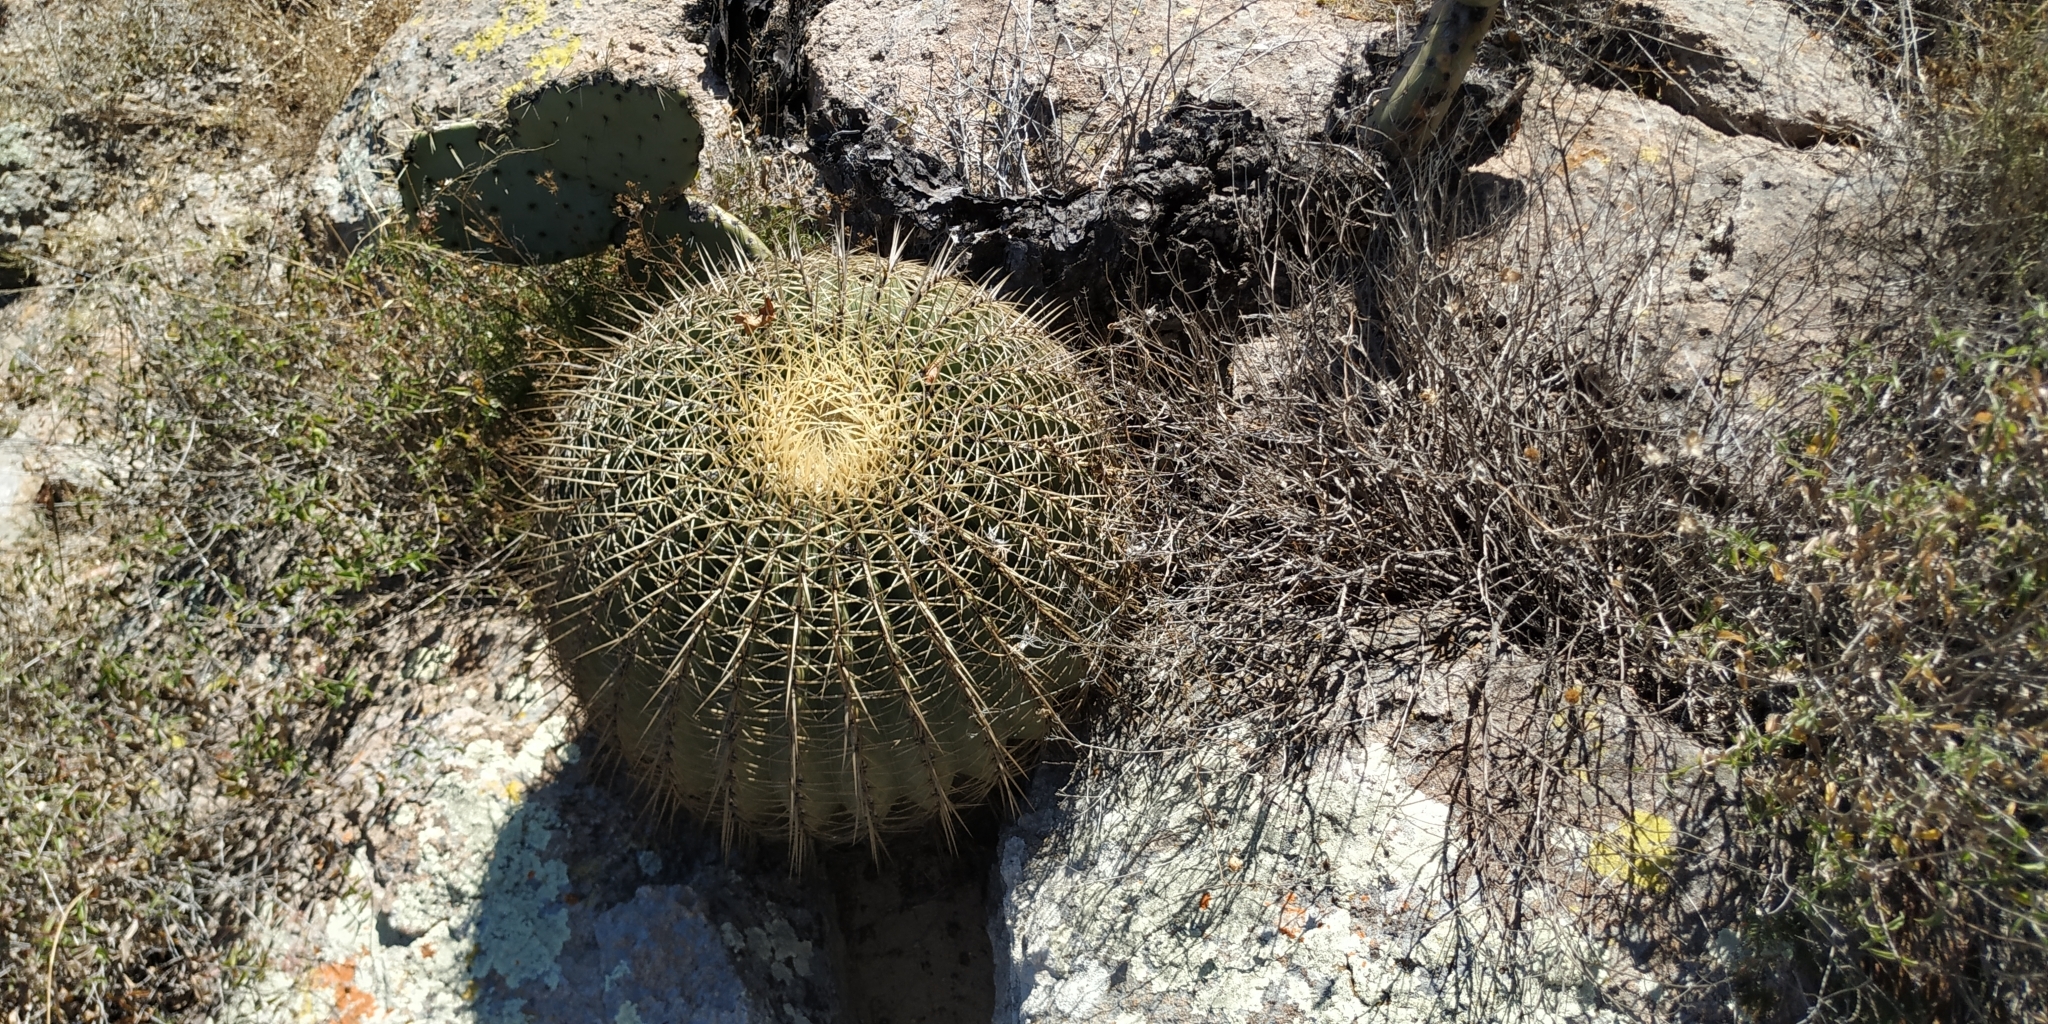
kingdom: Plantae
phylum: Tracheophyta
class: Magnoliopsida
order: Caryophyllales
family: Cactaceae
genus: Bisnaga
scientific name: Bisnaga histrix
